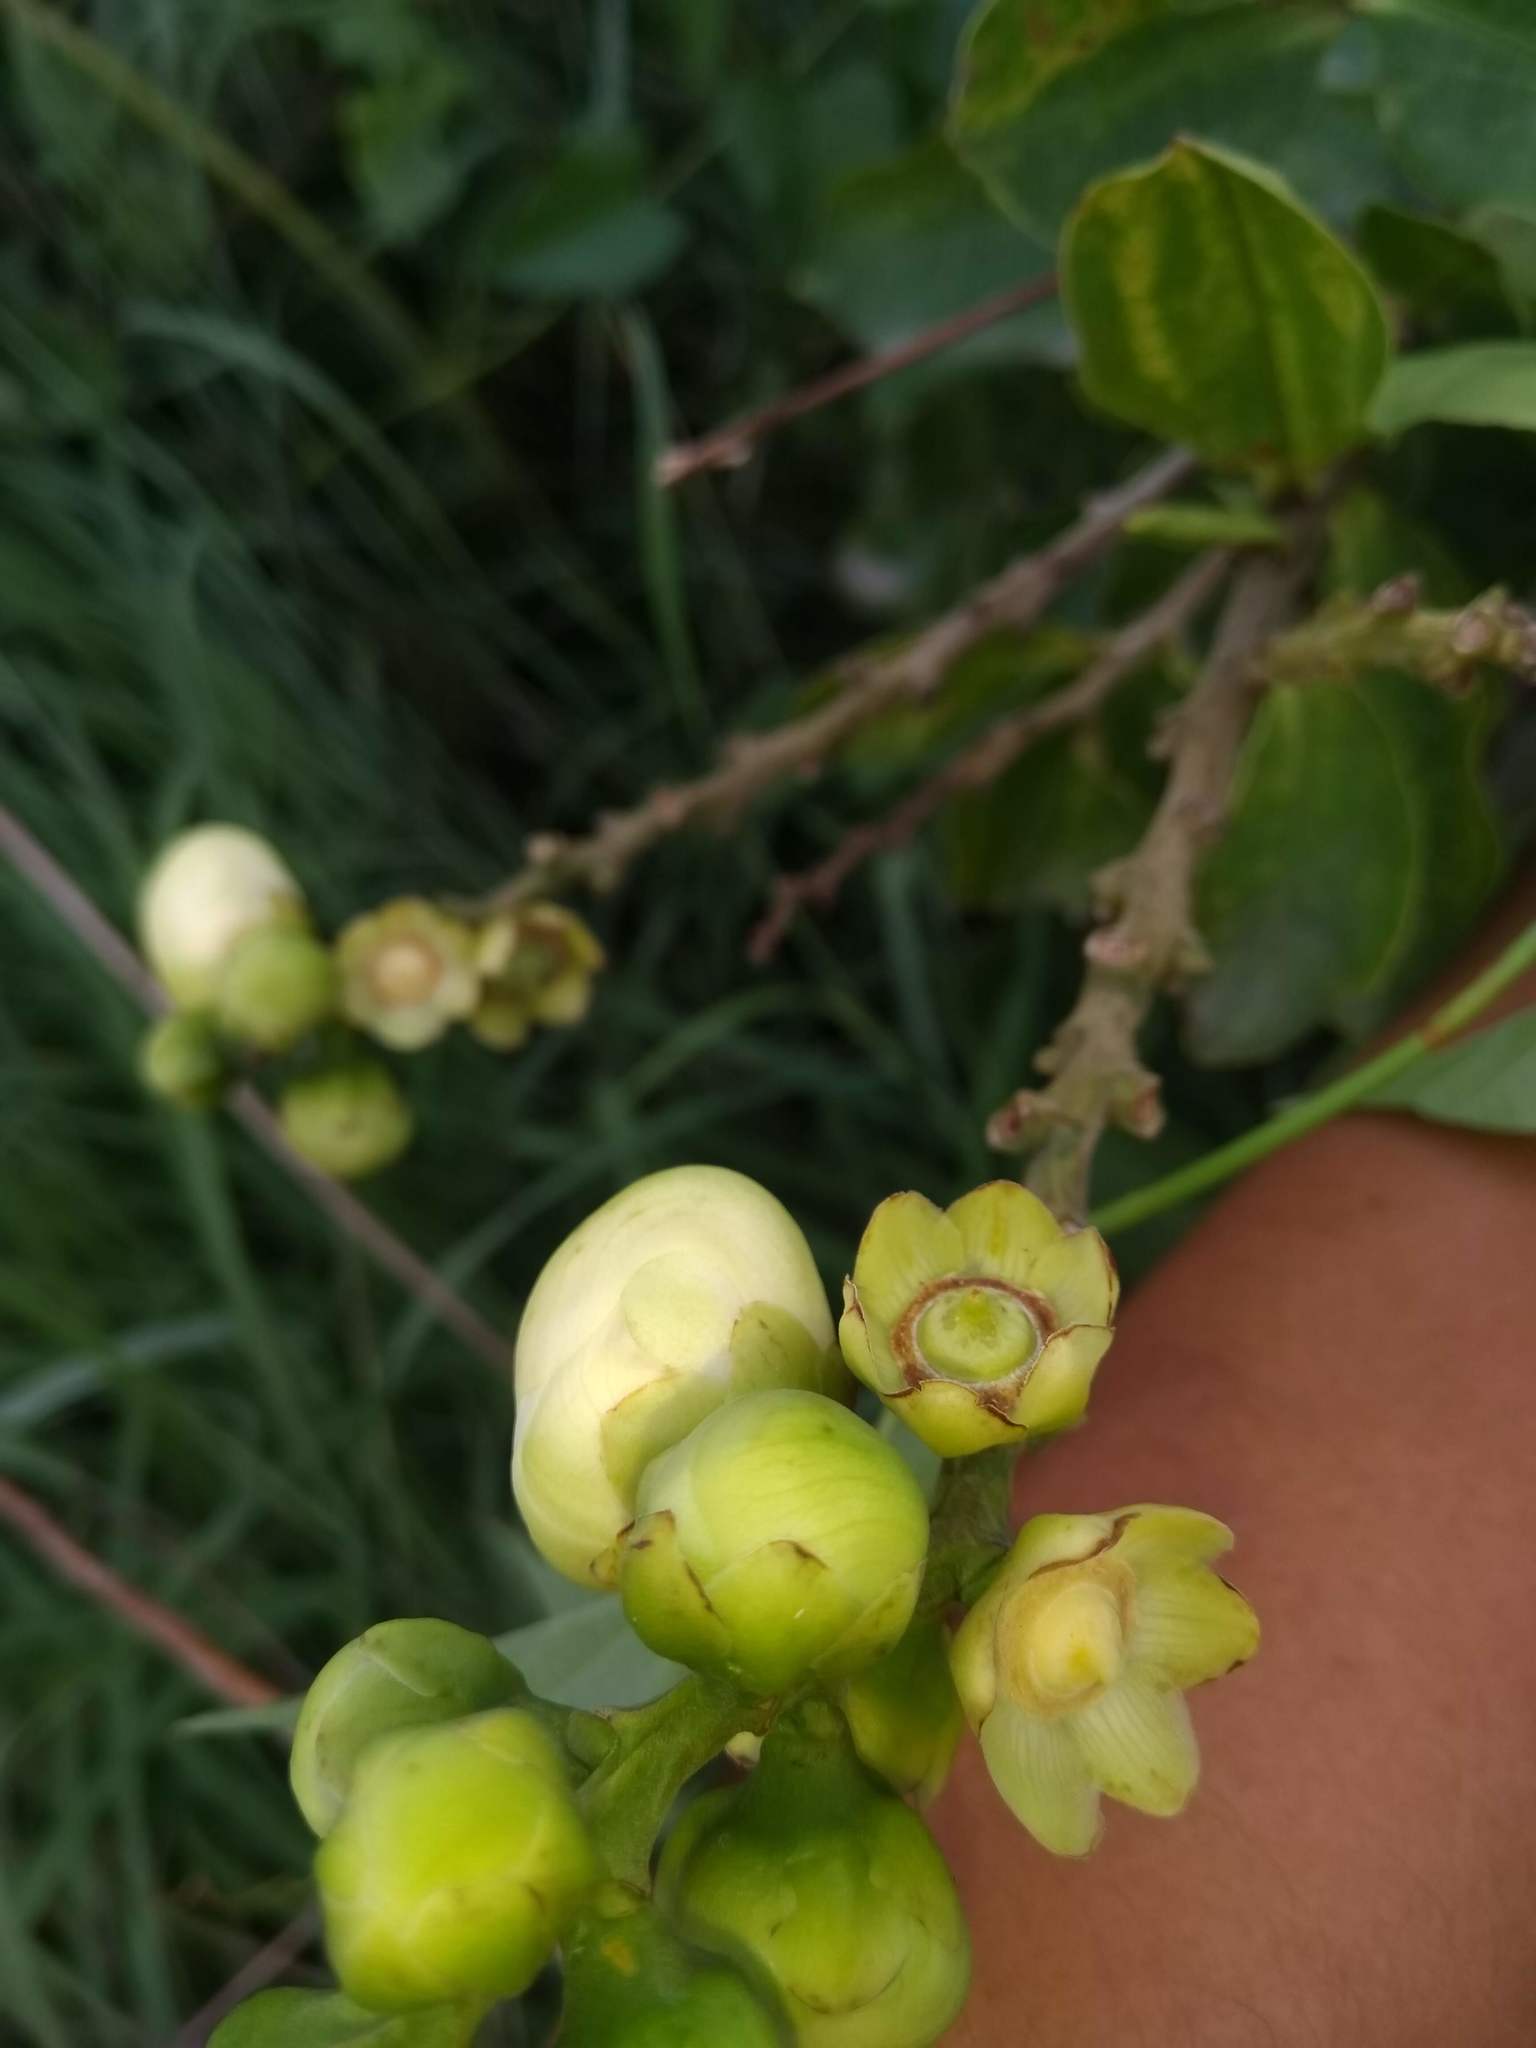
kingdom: Plantae
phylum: Tracheophyta
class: Magnoliopsida
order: Ericales
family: Lecythidaceae
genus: Lecythis
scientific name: Lecythis minor
